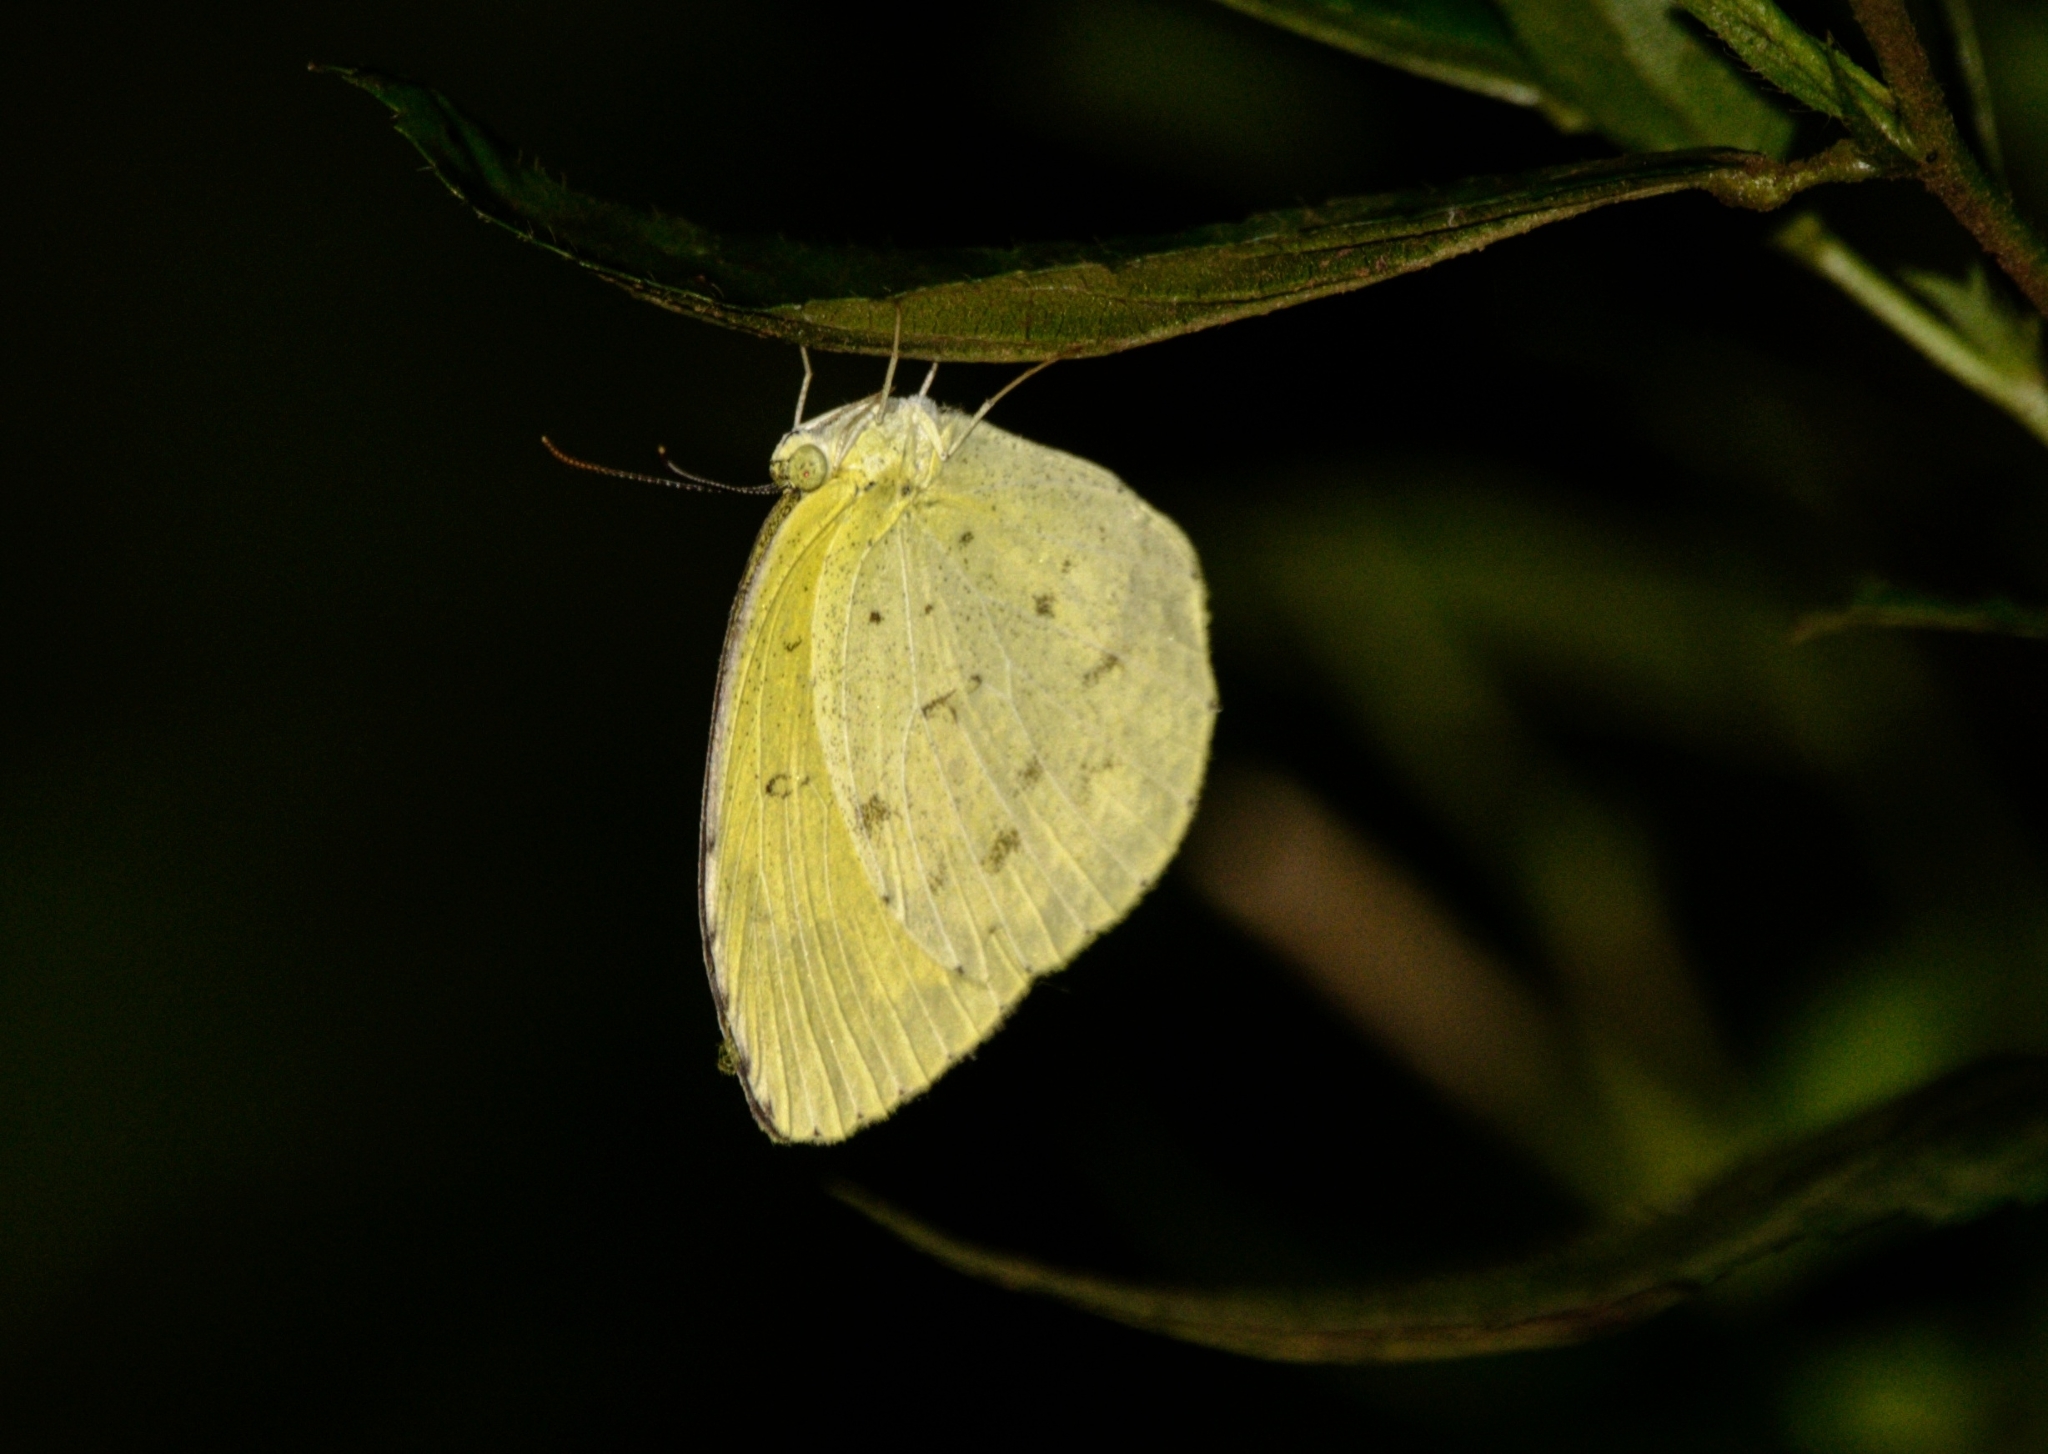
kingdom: Animalia
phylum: Arthropoda
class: Insecta
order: Lepidoptera
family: Pieridae
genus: Eurema
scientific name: Eurema hecabe
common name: Pale grass yellow
